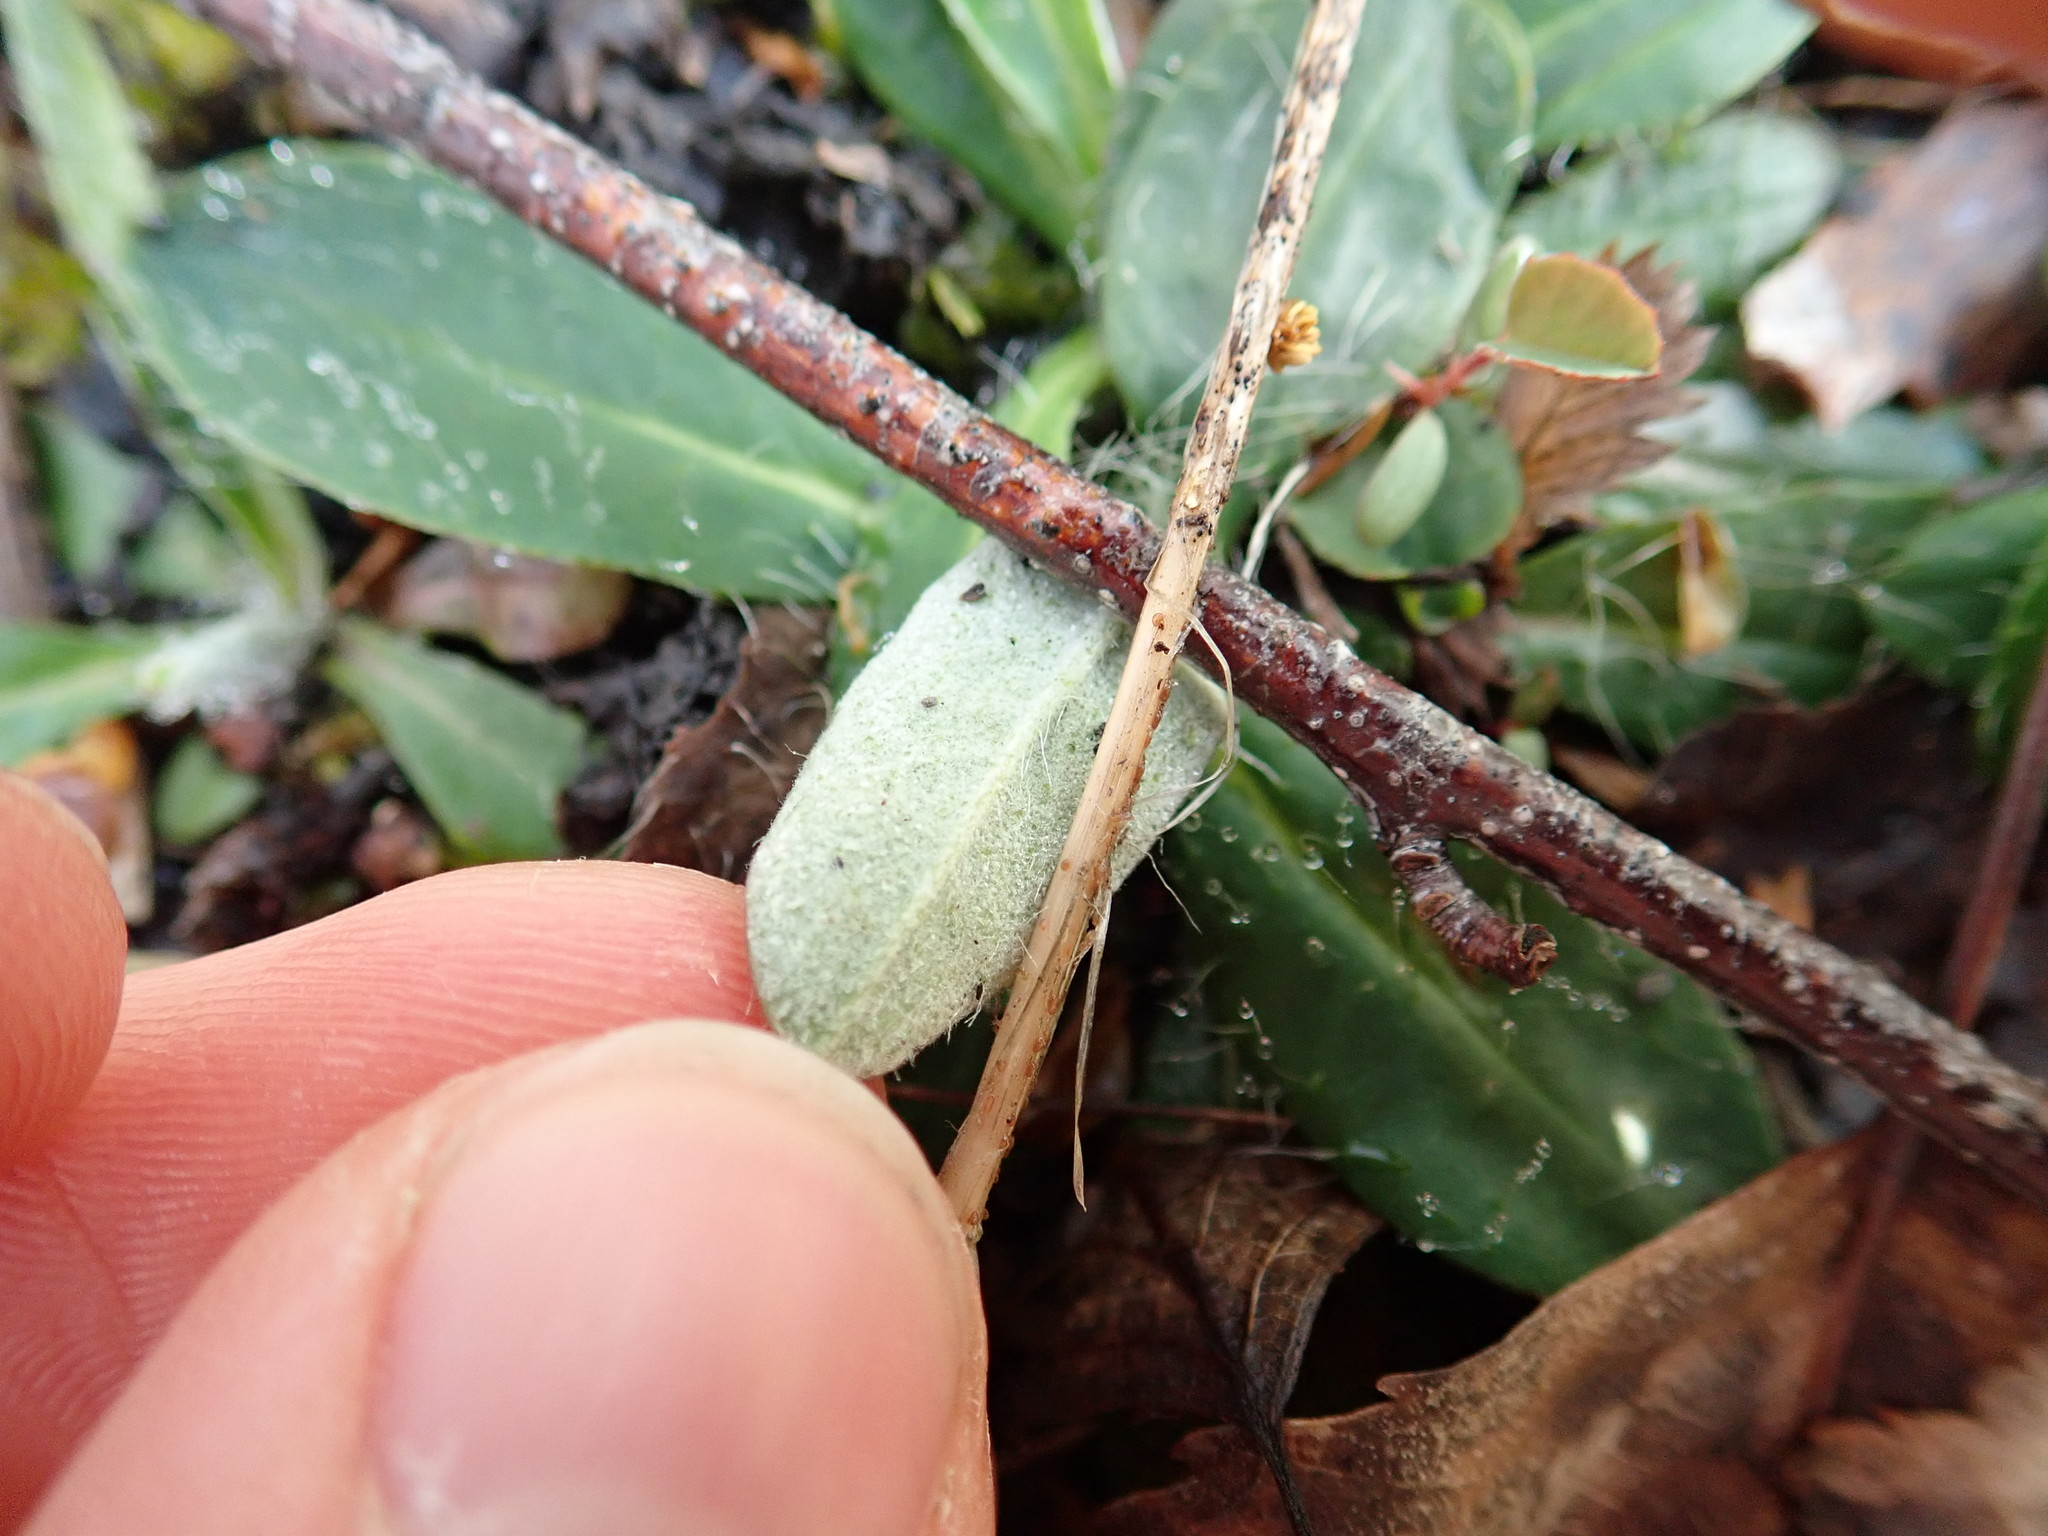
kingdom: Plantae
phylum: Tracheophyta
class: Magnoliopsida
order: Asterales
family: Asteraceae
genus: Pilosella
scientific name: Pilosella officinarum
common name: Mouse-ear hawkweed
